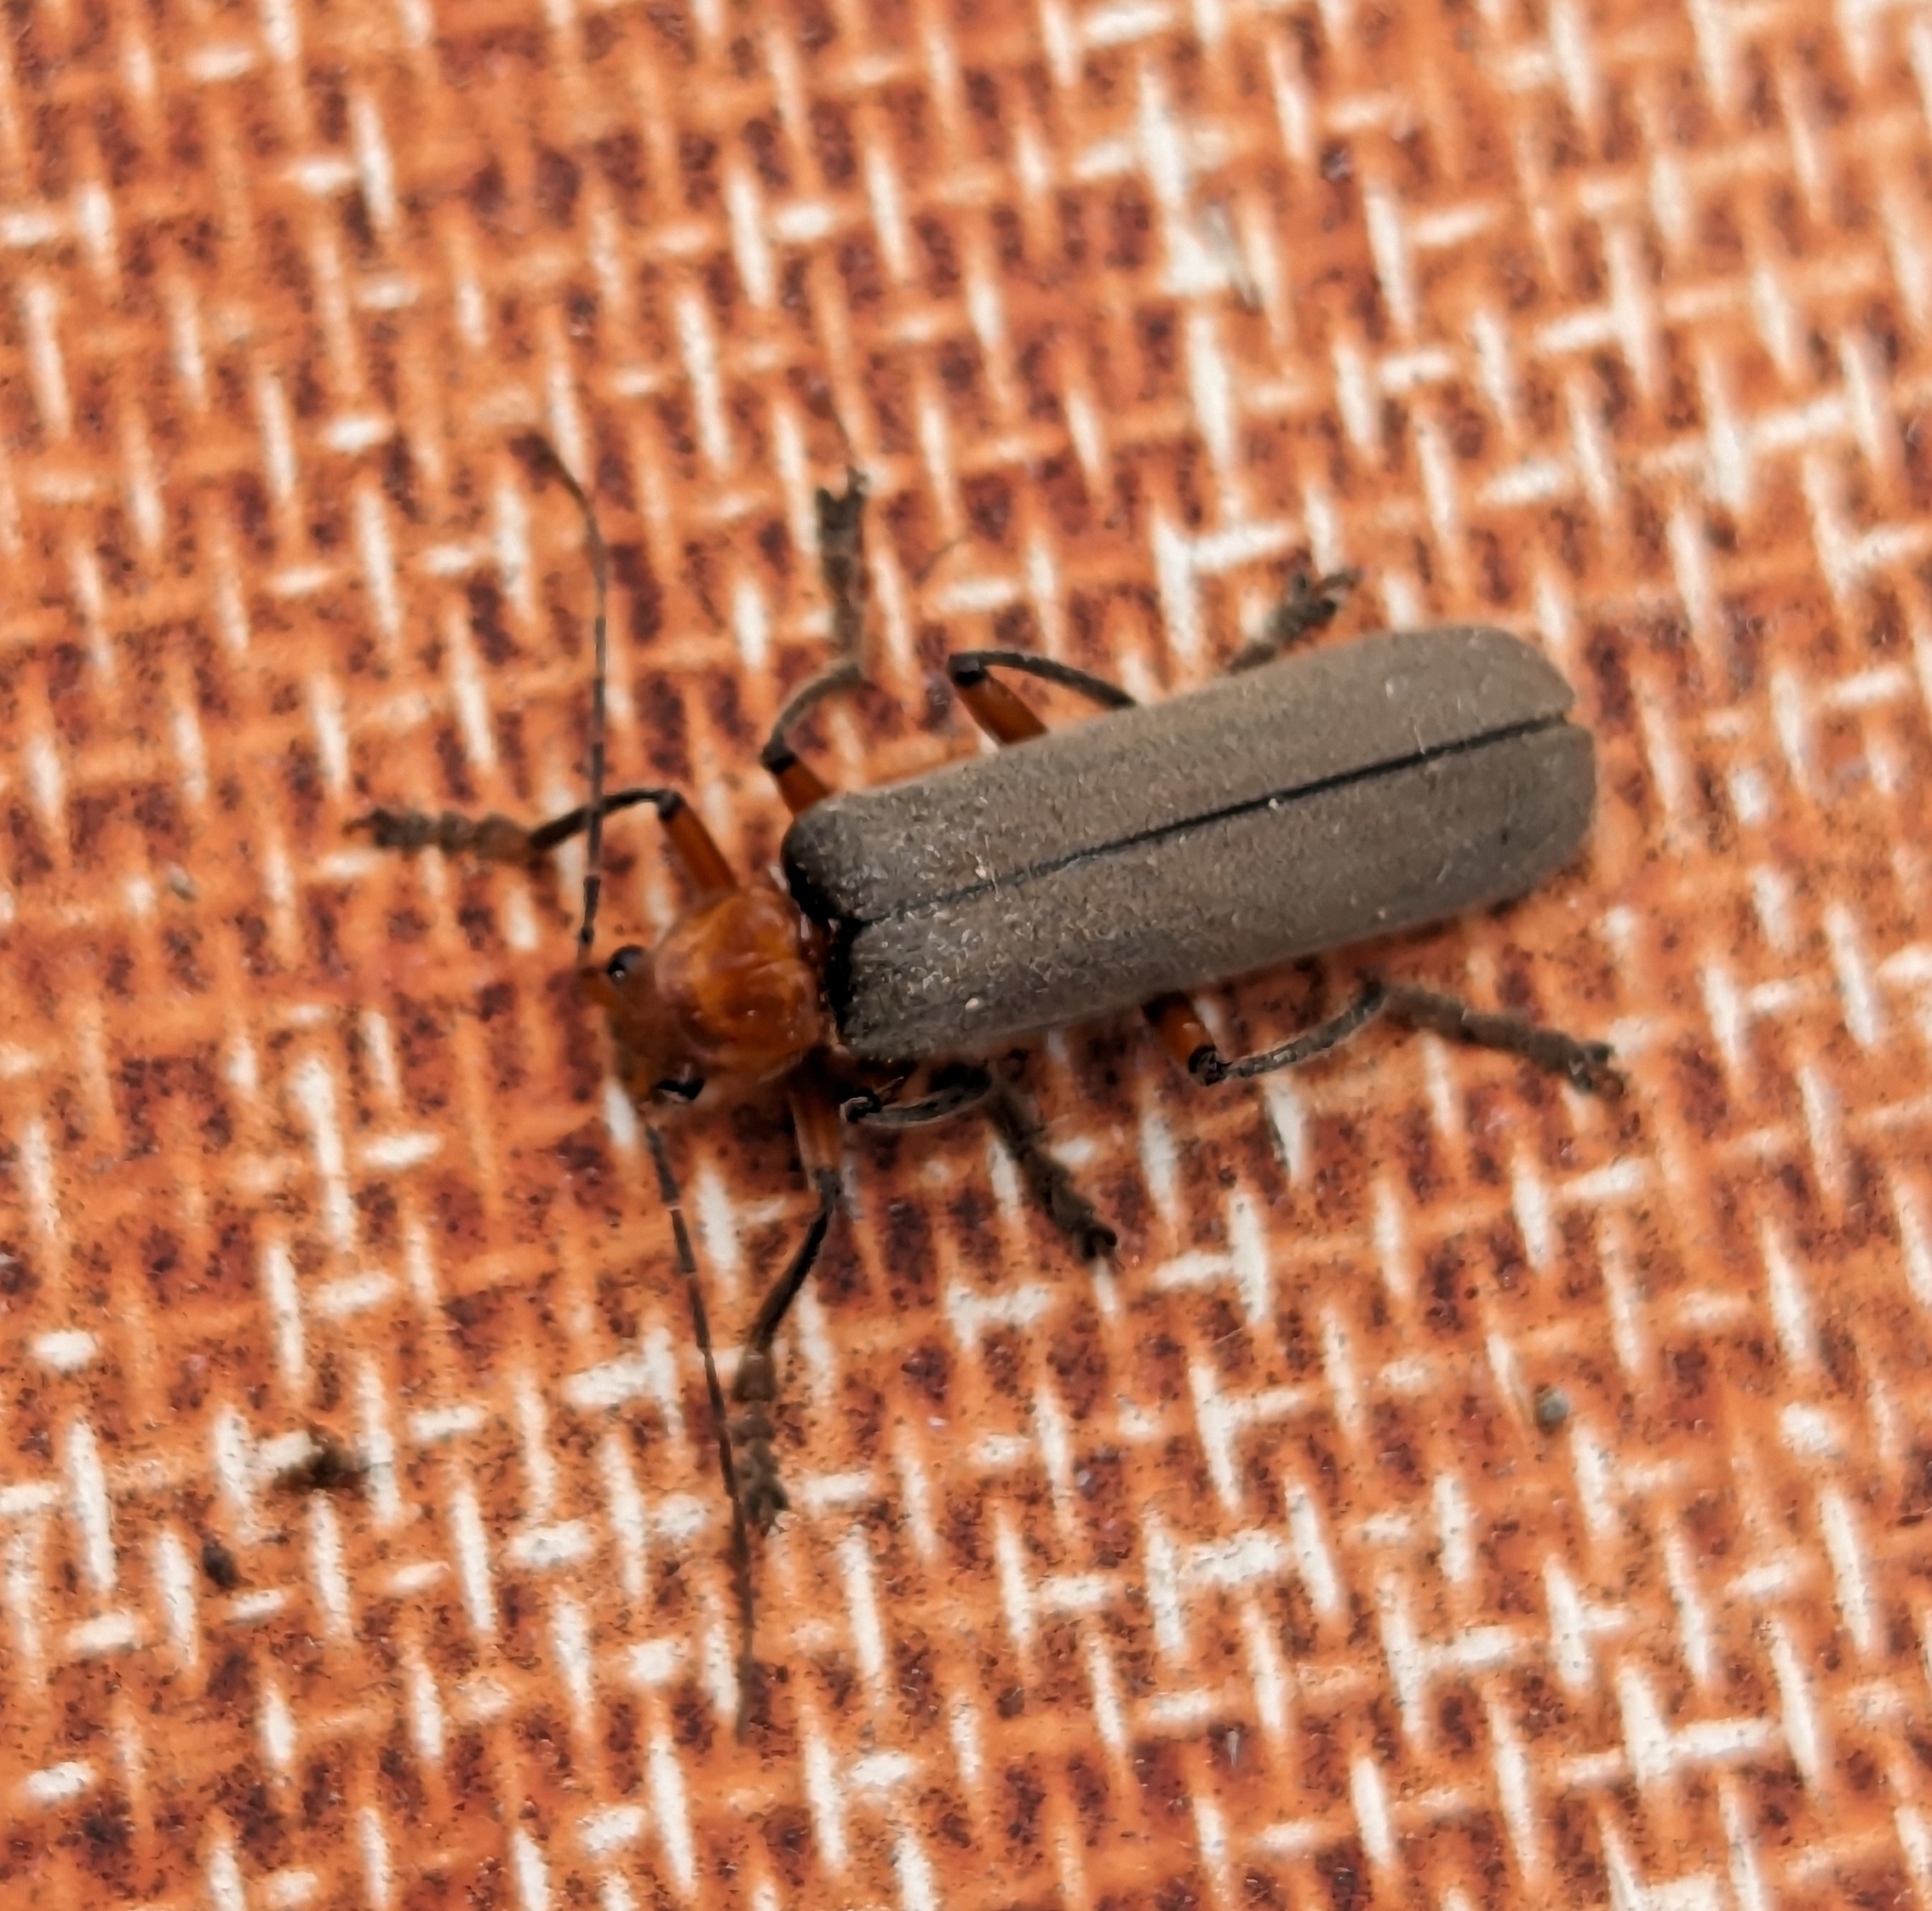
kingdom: Animalia
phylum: Arthropoda
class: Insecta
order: Coleoptera
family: Cantharidae
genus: Pacificanthia
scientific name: Pacificanthia consors
